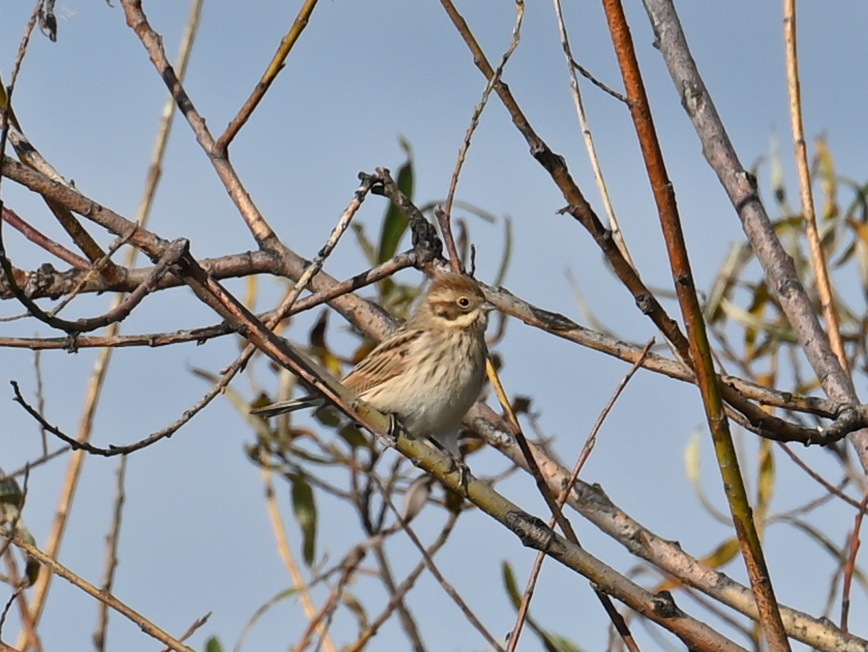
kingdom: Animalia
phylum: Chordata
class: Aves
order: Passeriformes
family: Emberizidae
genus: Emberiza
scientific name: Emberiza schoeniclus
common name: Reed bunting
